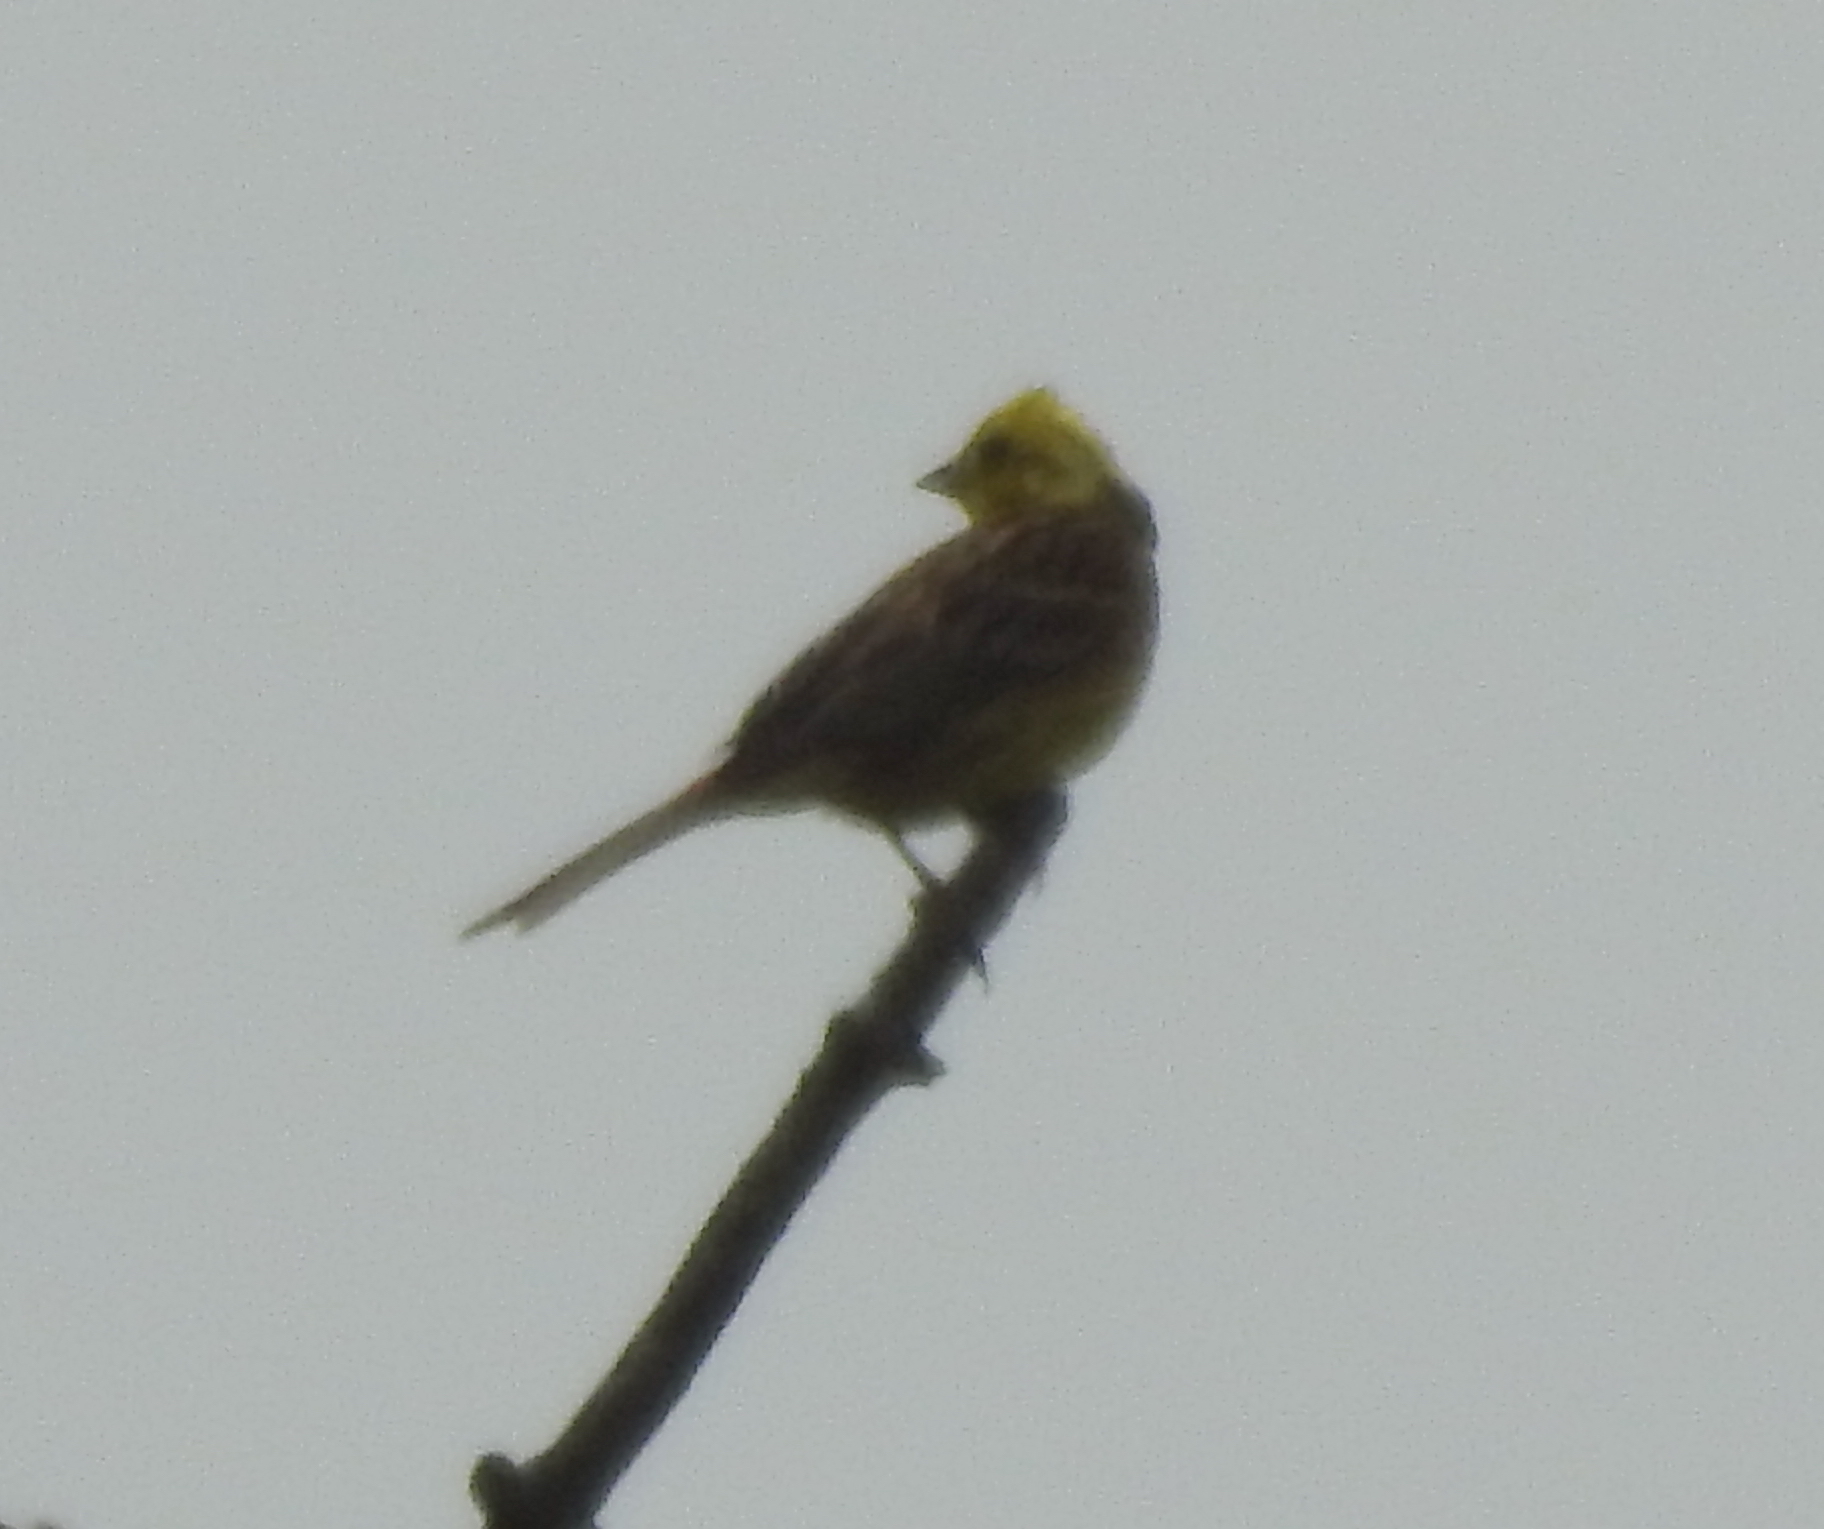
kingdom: Animalia
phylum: Chordata
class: Aves
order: Passeriformes
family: Emberizidae
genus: Emberiza
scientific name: Emberiza citrinella
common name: Yellowhammer
